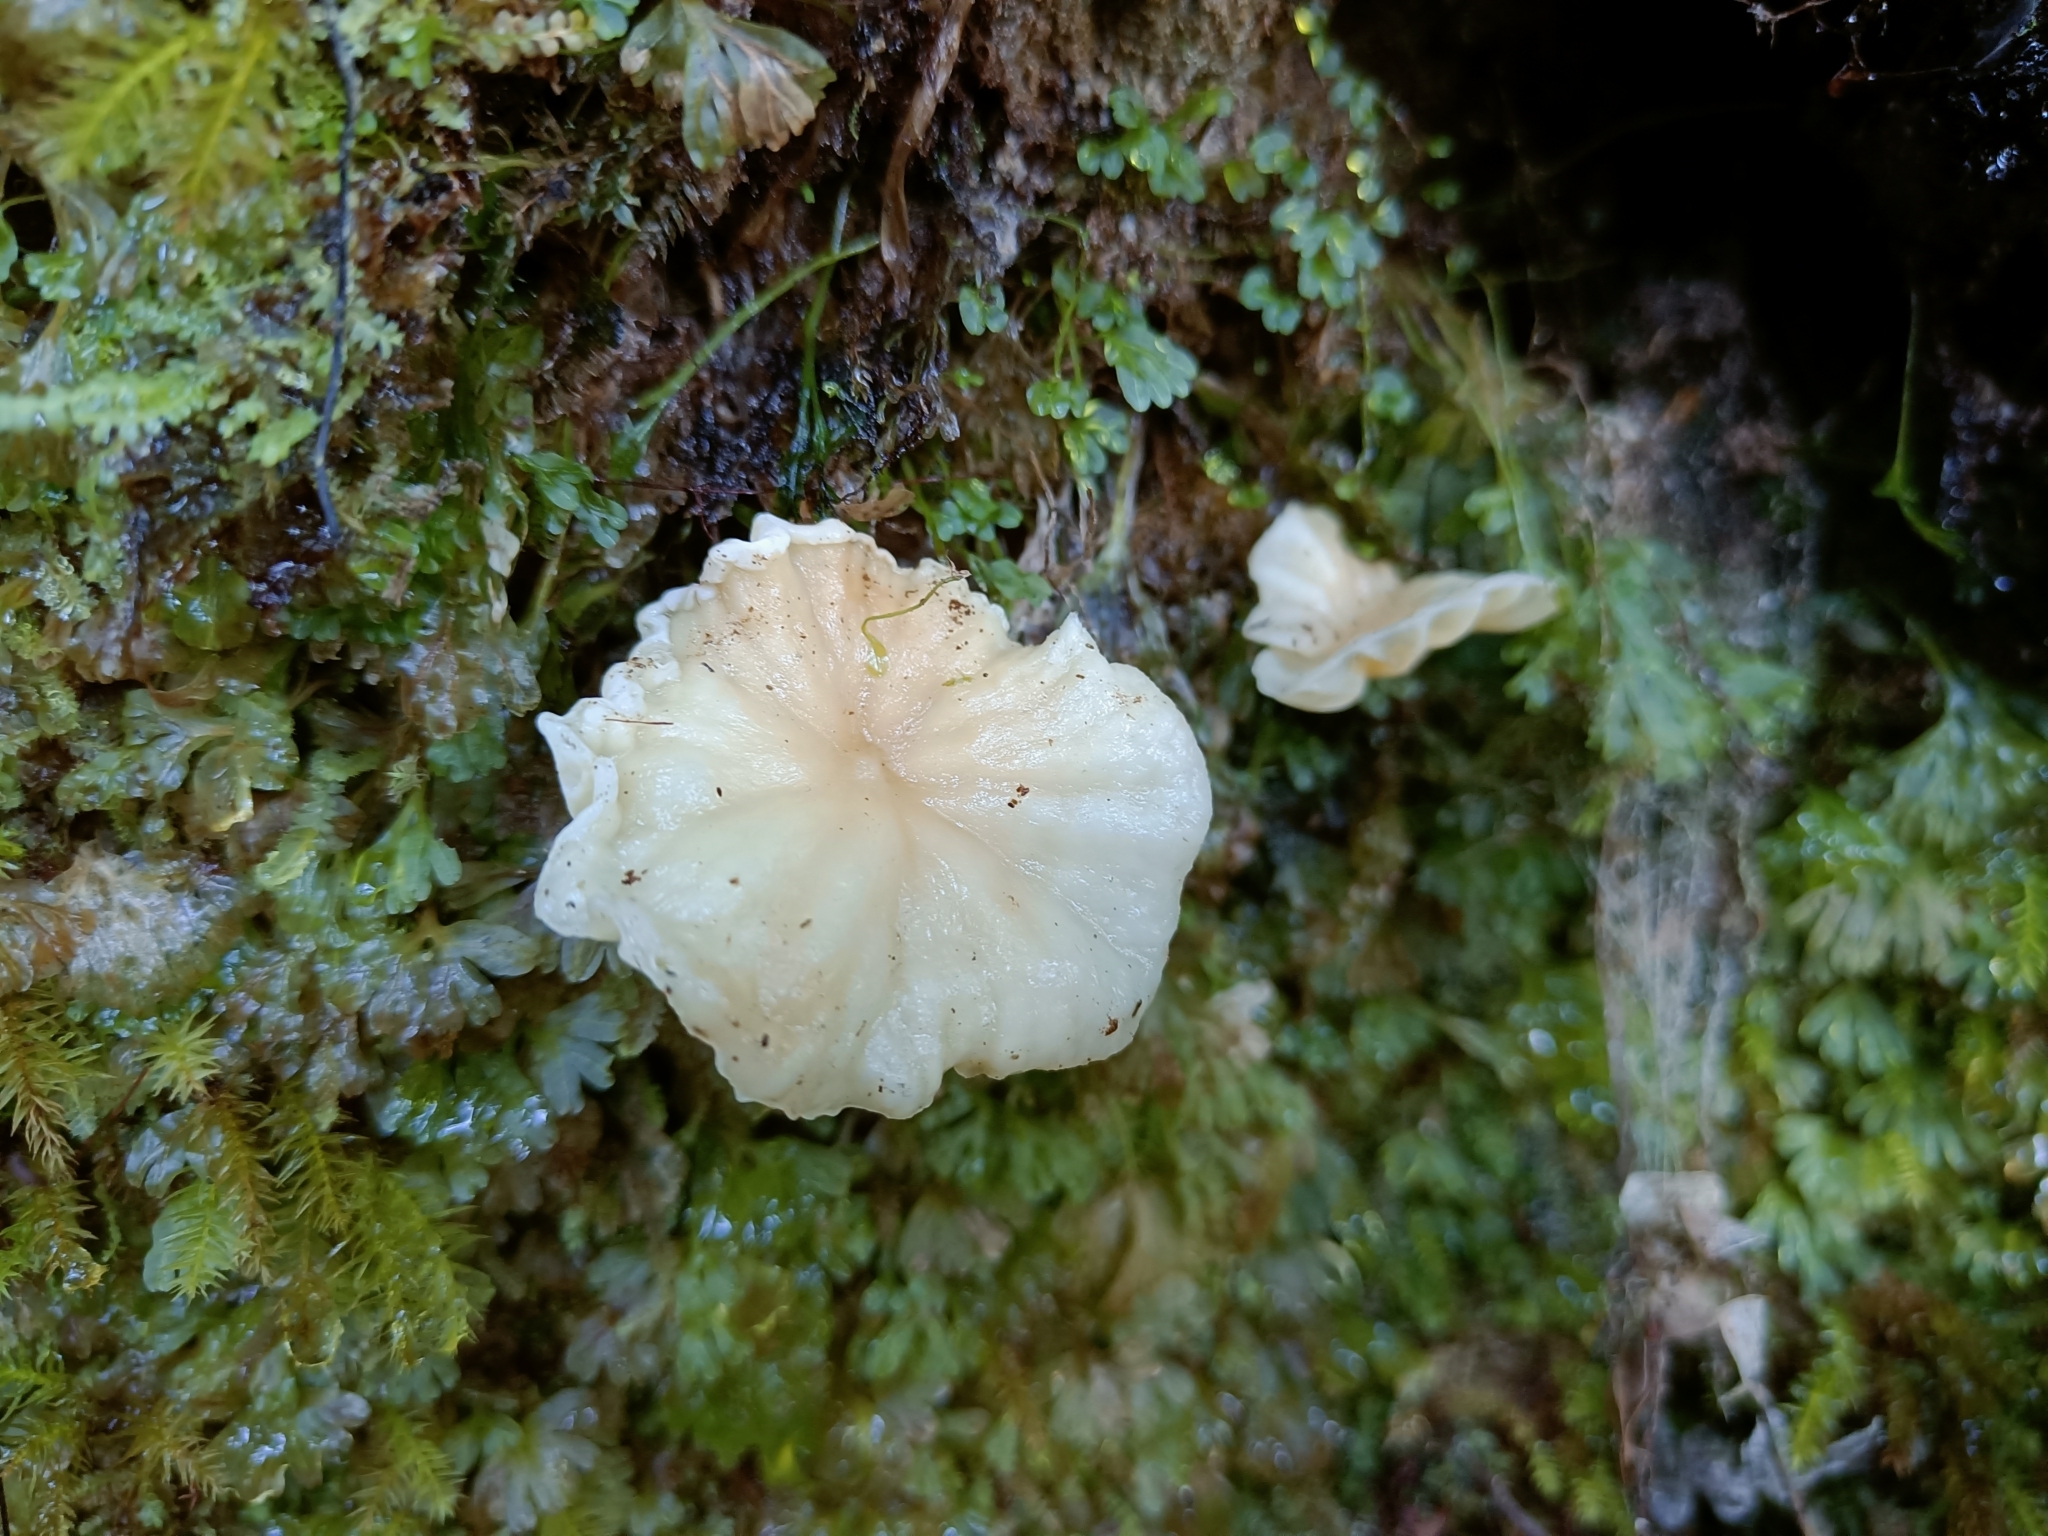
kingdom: Fungi
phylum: Basidiomycota
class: Agaricomycetes
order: Cantharellales
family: Hydnaceae
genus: Cantharellus
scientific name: Cantharellus wellingtonensis
